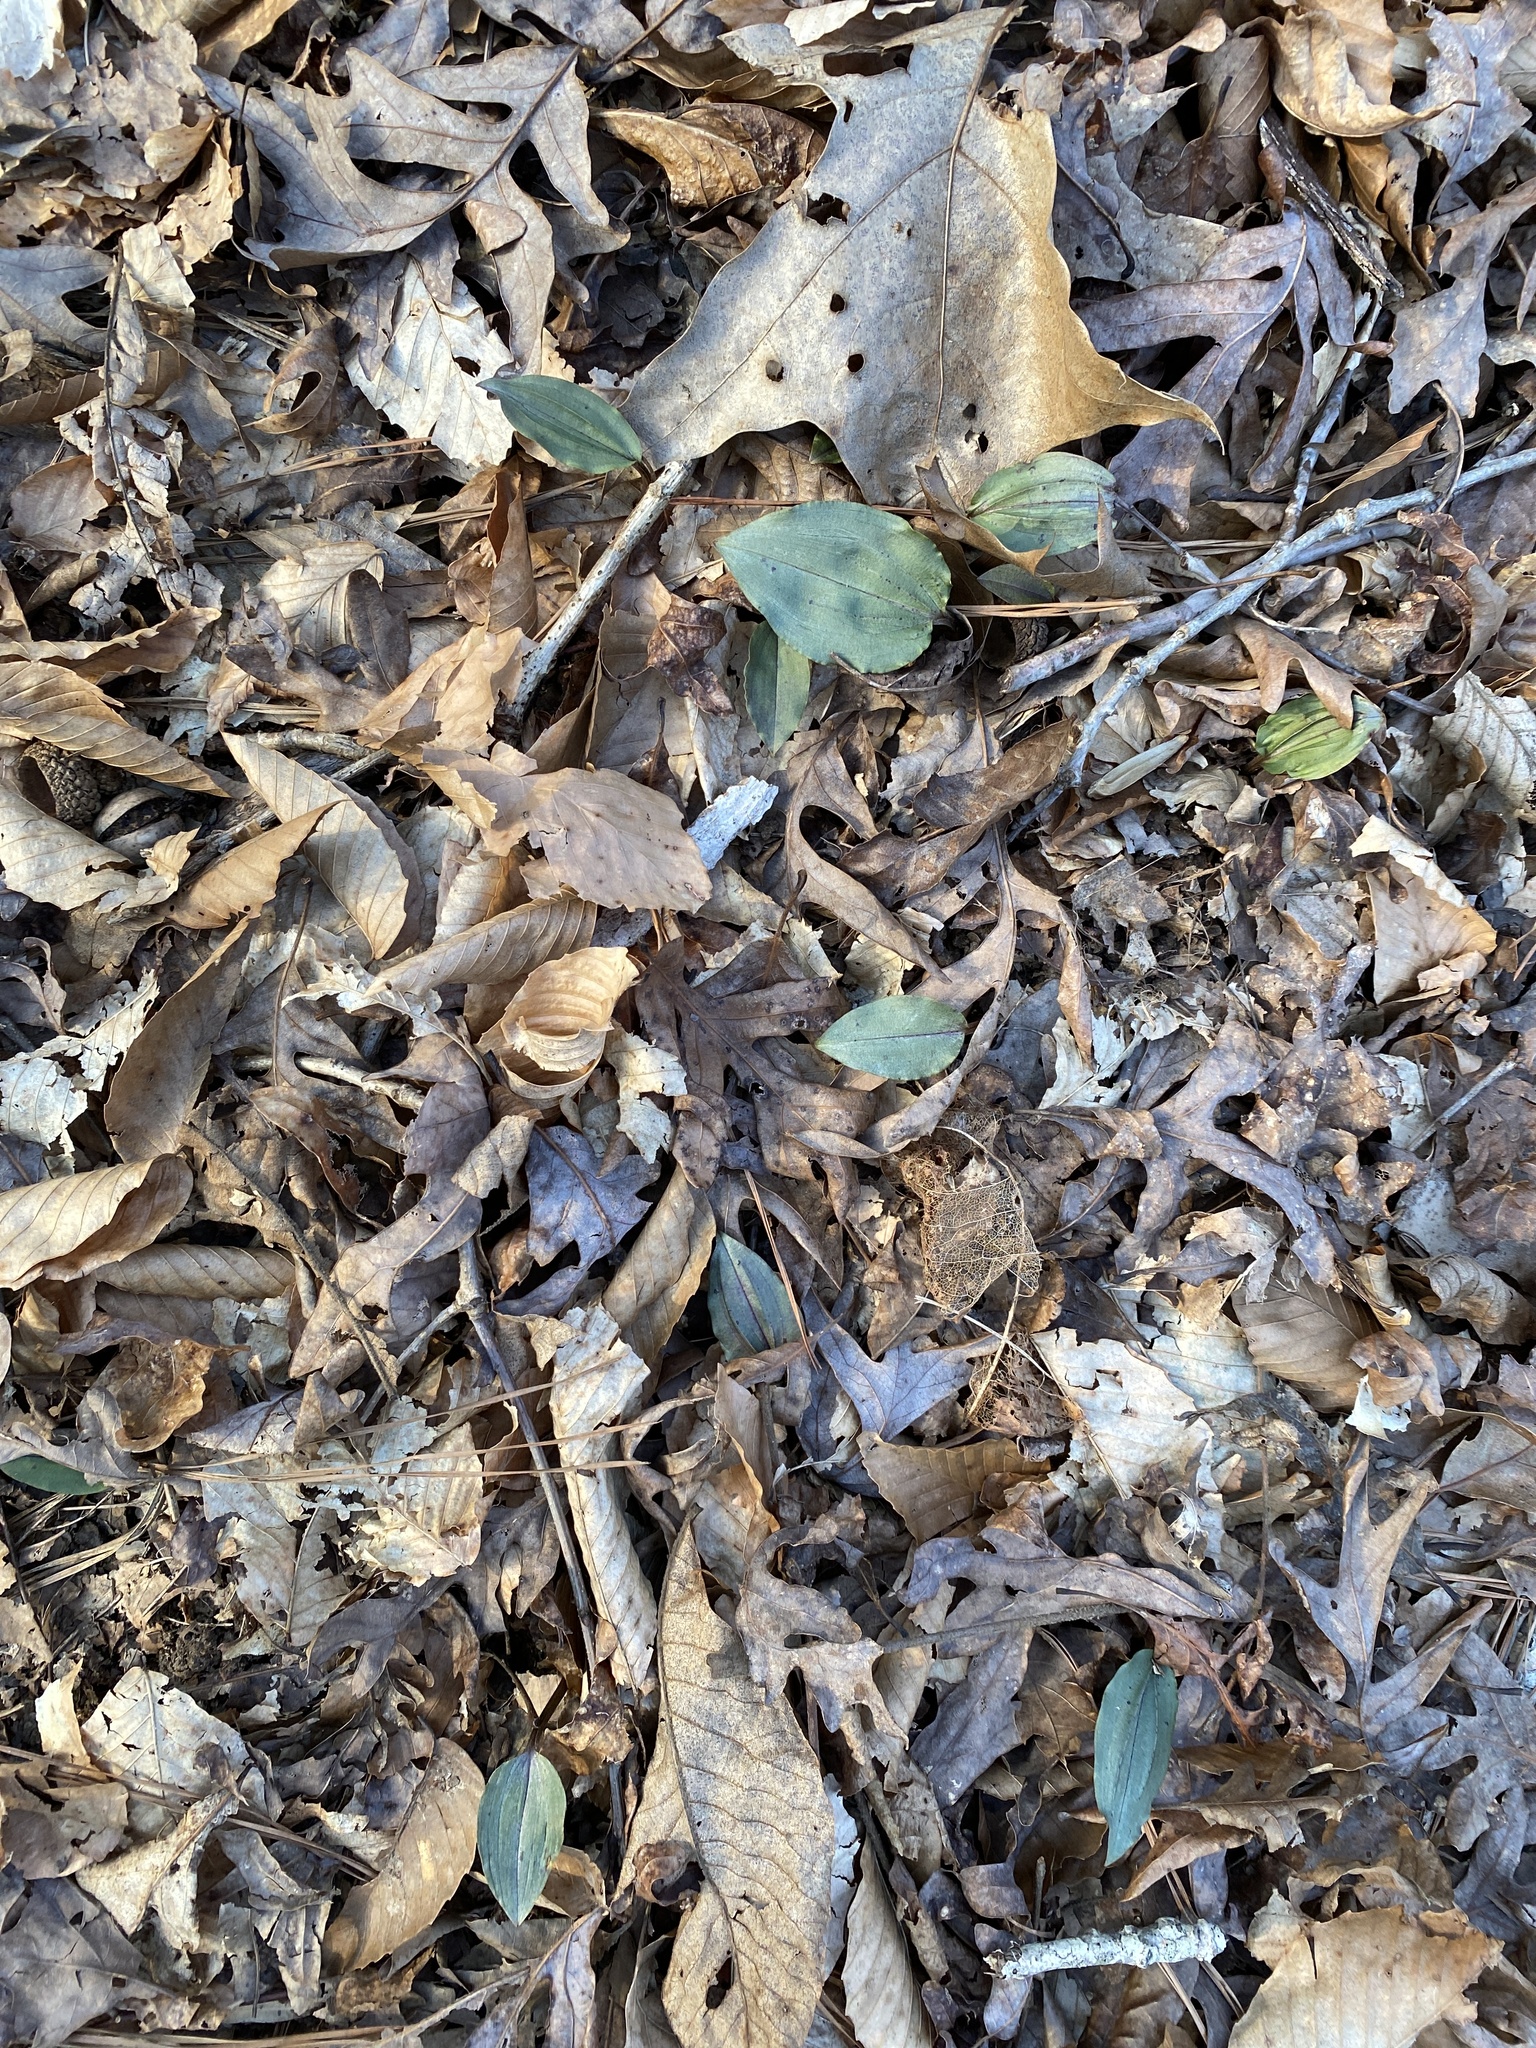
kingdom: Plantae
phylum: Tracheophyta
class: Liliopsida
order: Asparagales
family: Orchidaceae
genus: Tipularia
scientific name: Tipularia discolor
